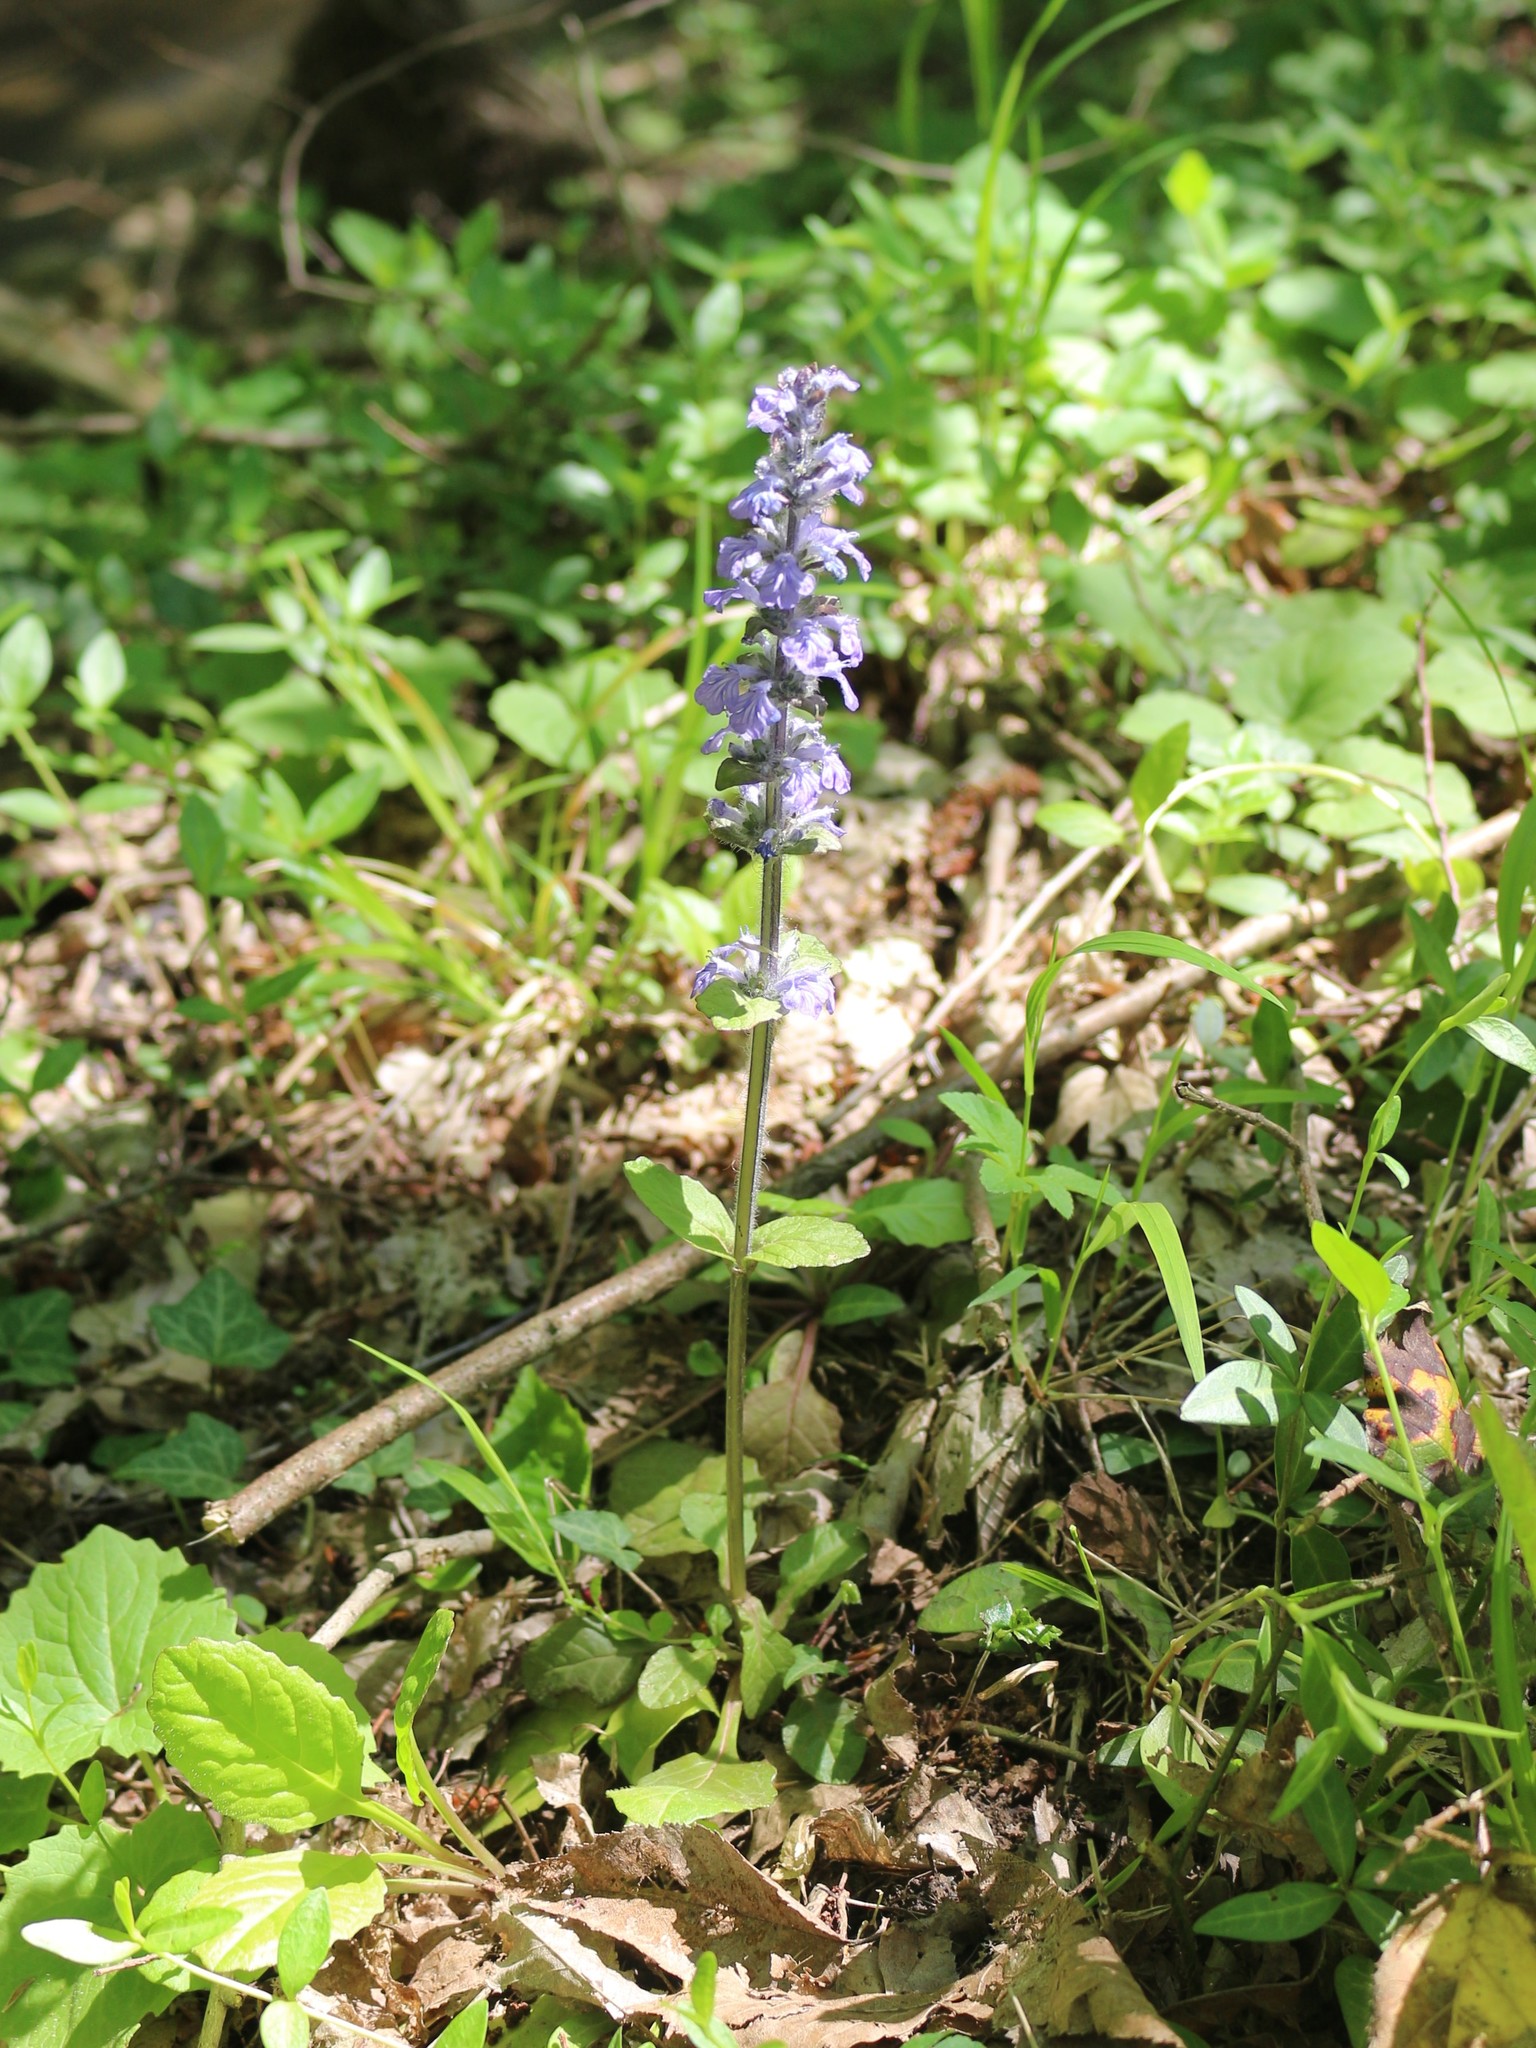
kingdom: Plantae
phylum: Tracheophyta
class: Magnoliopsida
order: Lamiales
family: Lamiaceae
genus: Ajuga
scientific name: Ajuga reptans
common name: Bugle
